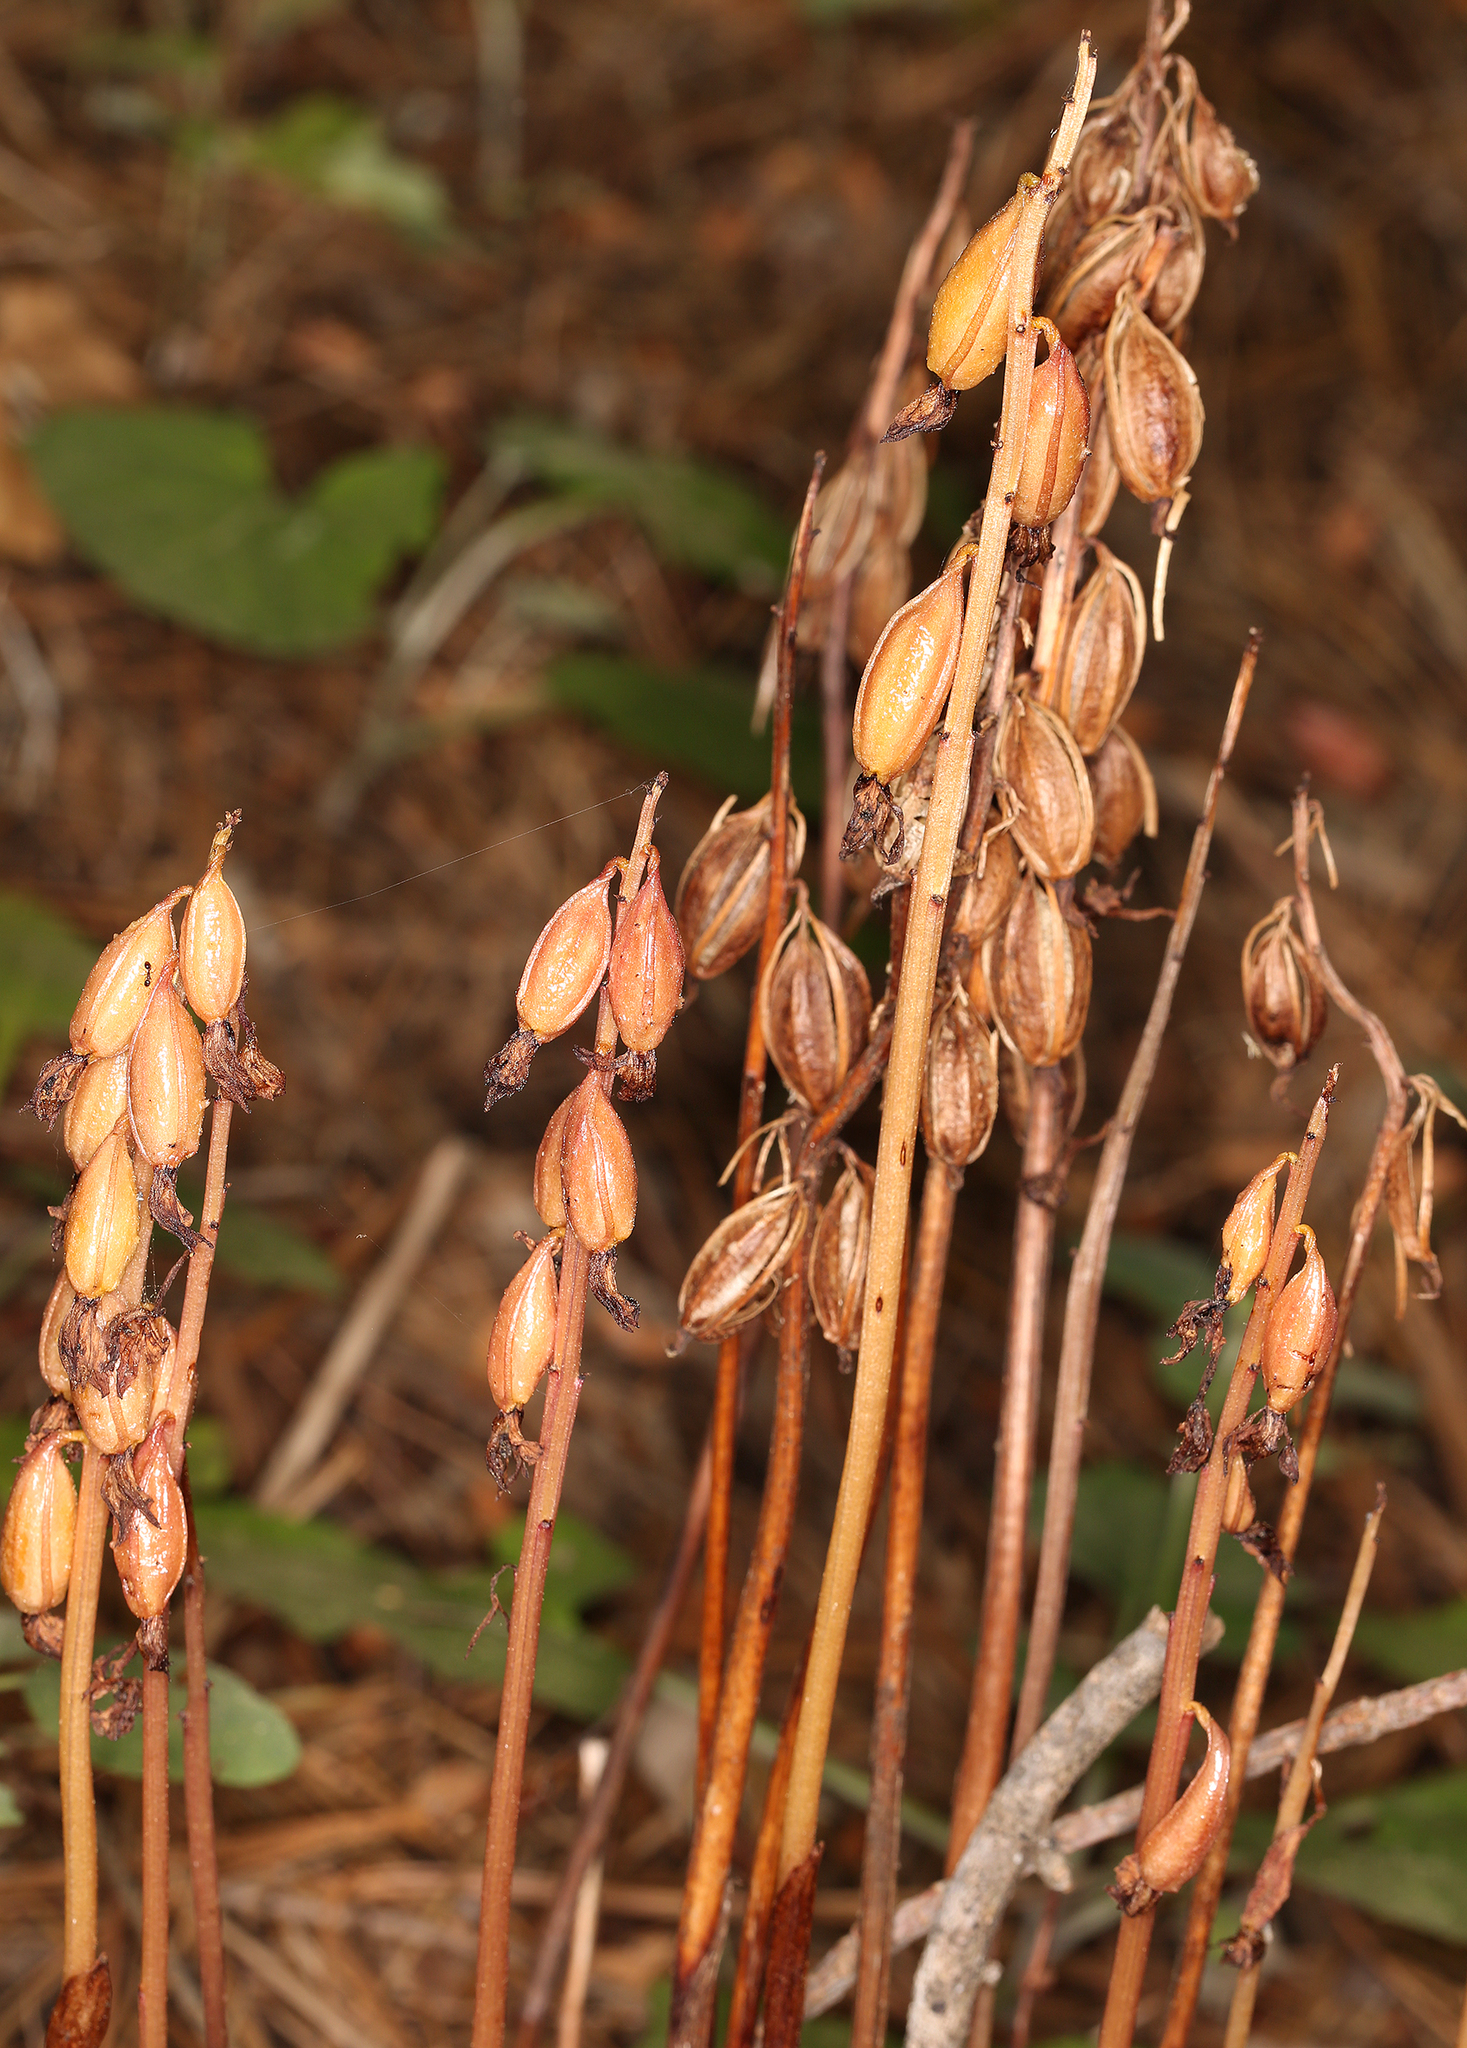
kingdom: Plantae
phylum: Tracheophyta
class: Liliopsida
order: Asparagales
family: Orchidaceae
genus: Corallorhiza
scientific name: Corallorhiza maculata
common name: Spotted coralroot
